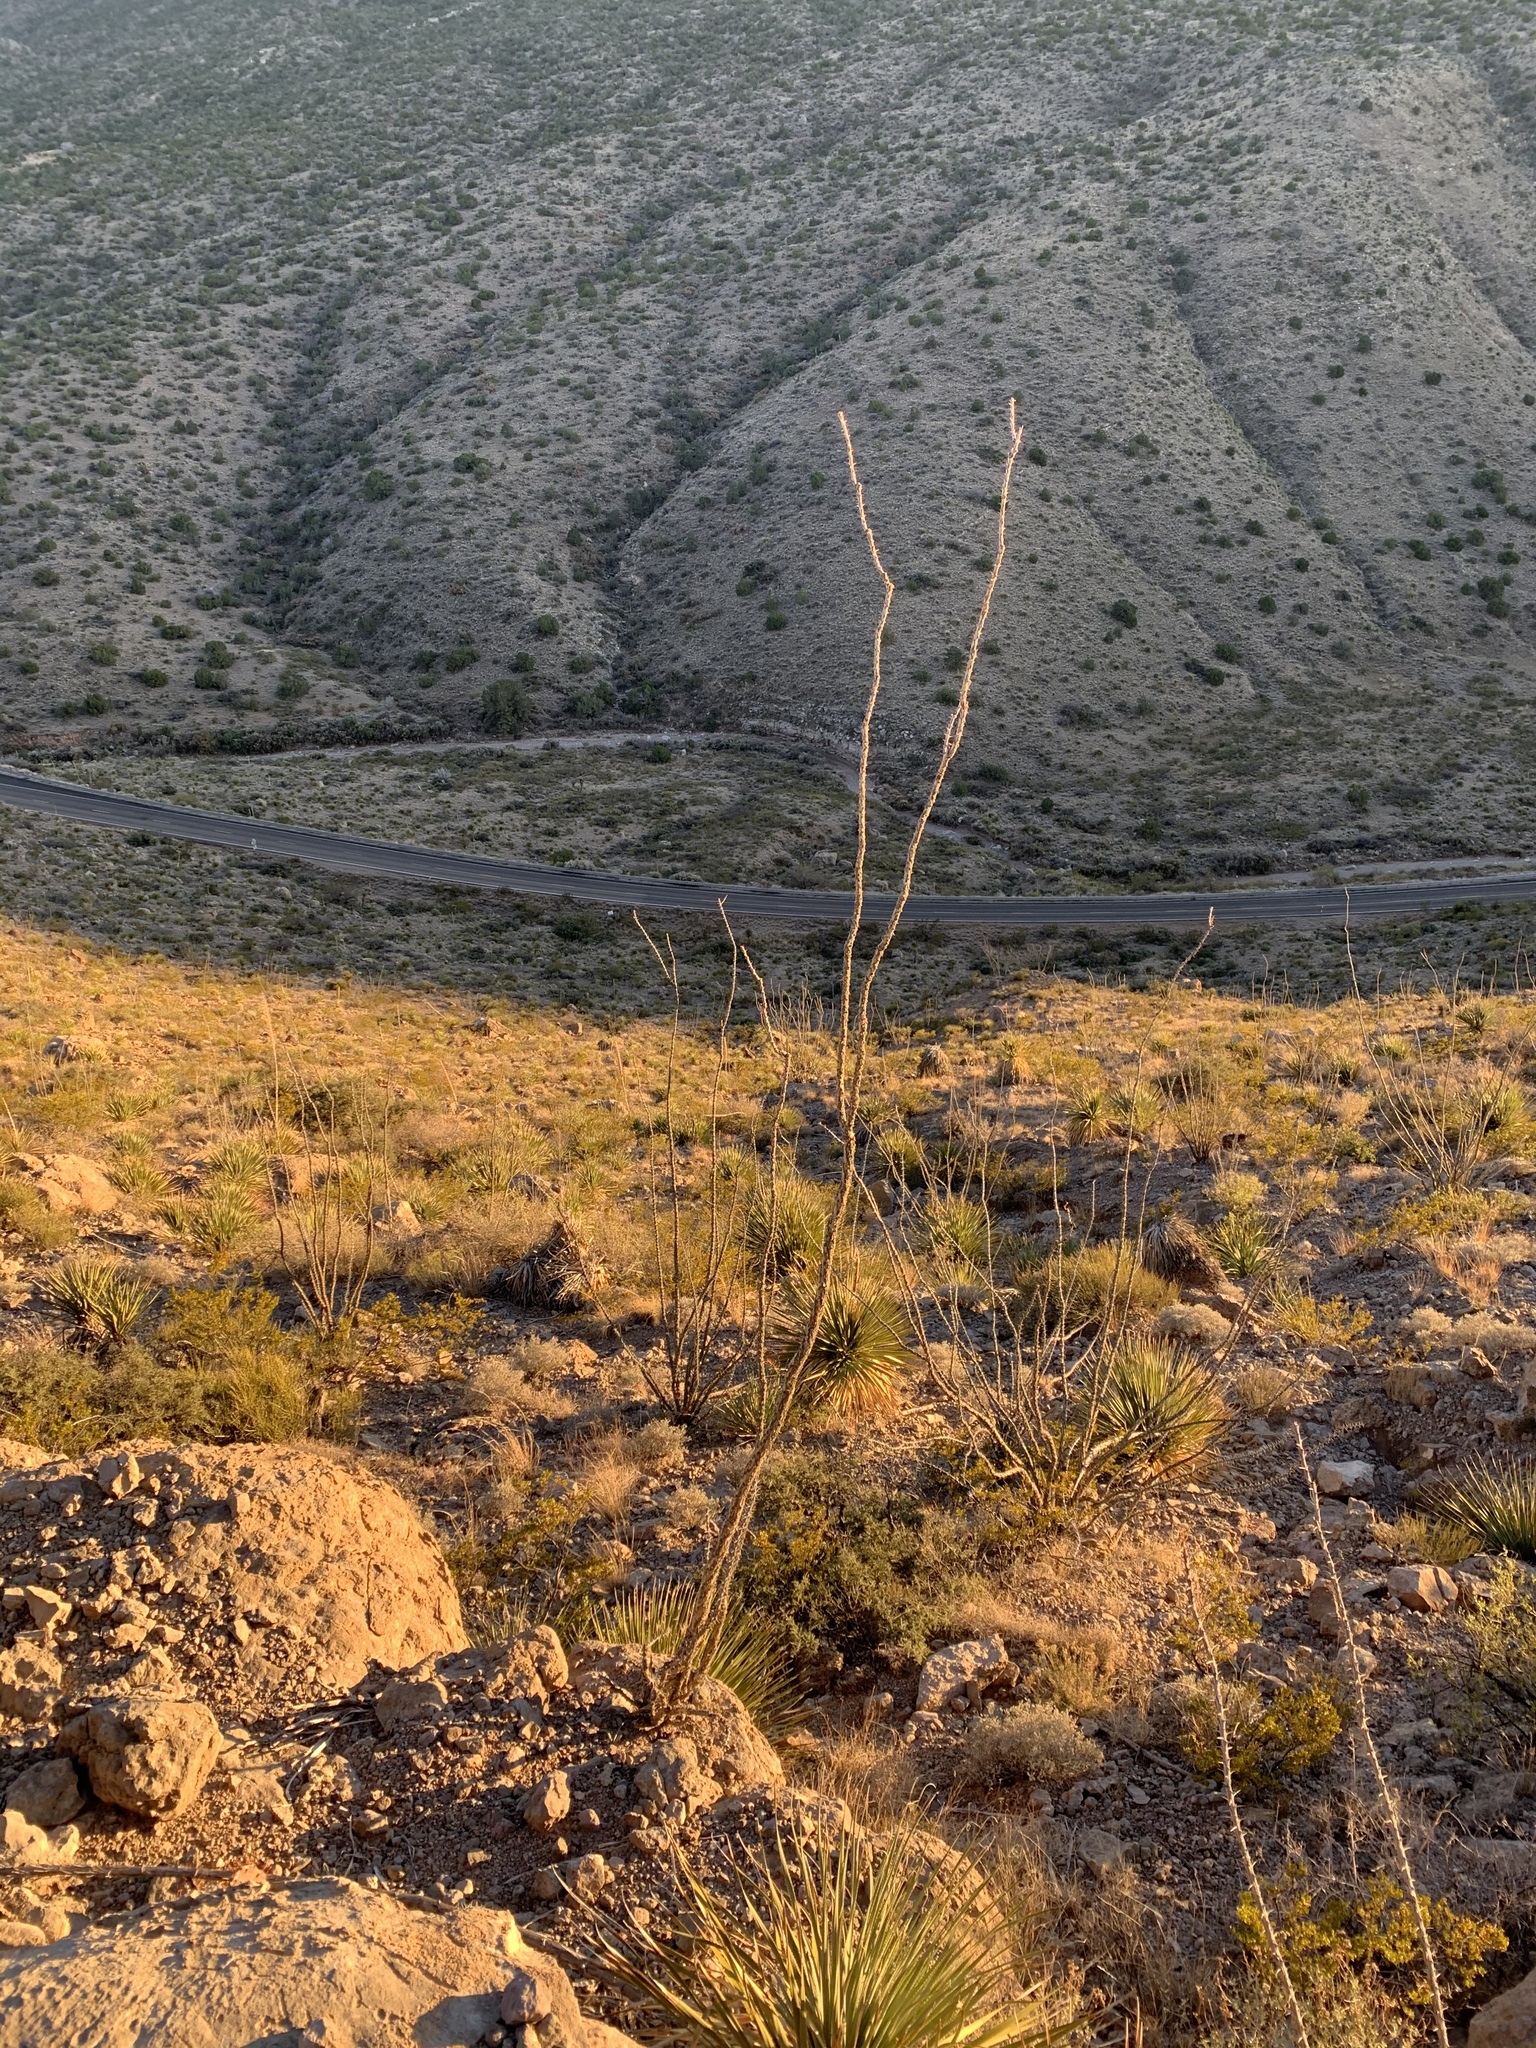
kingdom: Plantae
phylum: Tracheophyta
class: Magnoliopsida
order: Ericales
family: Fouquieriaceae
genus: Fouquieria
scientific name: Fouquieria splendens
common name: Vine-cactus
